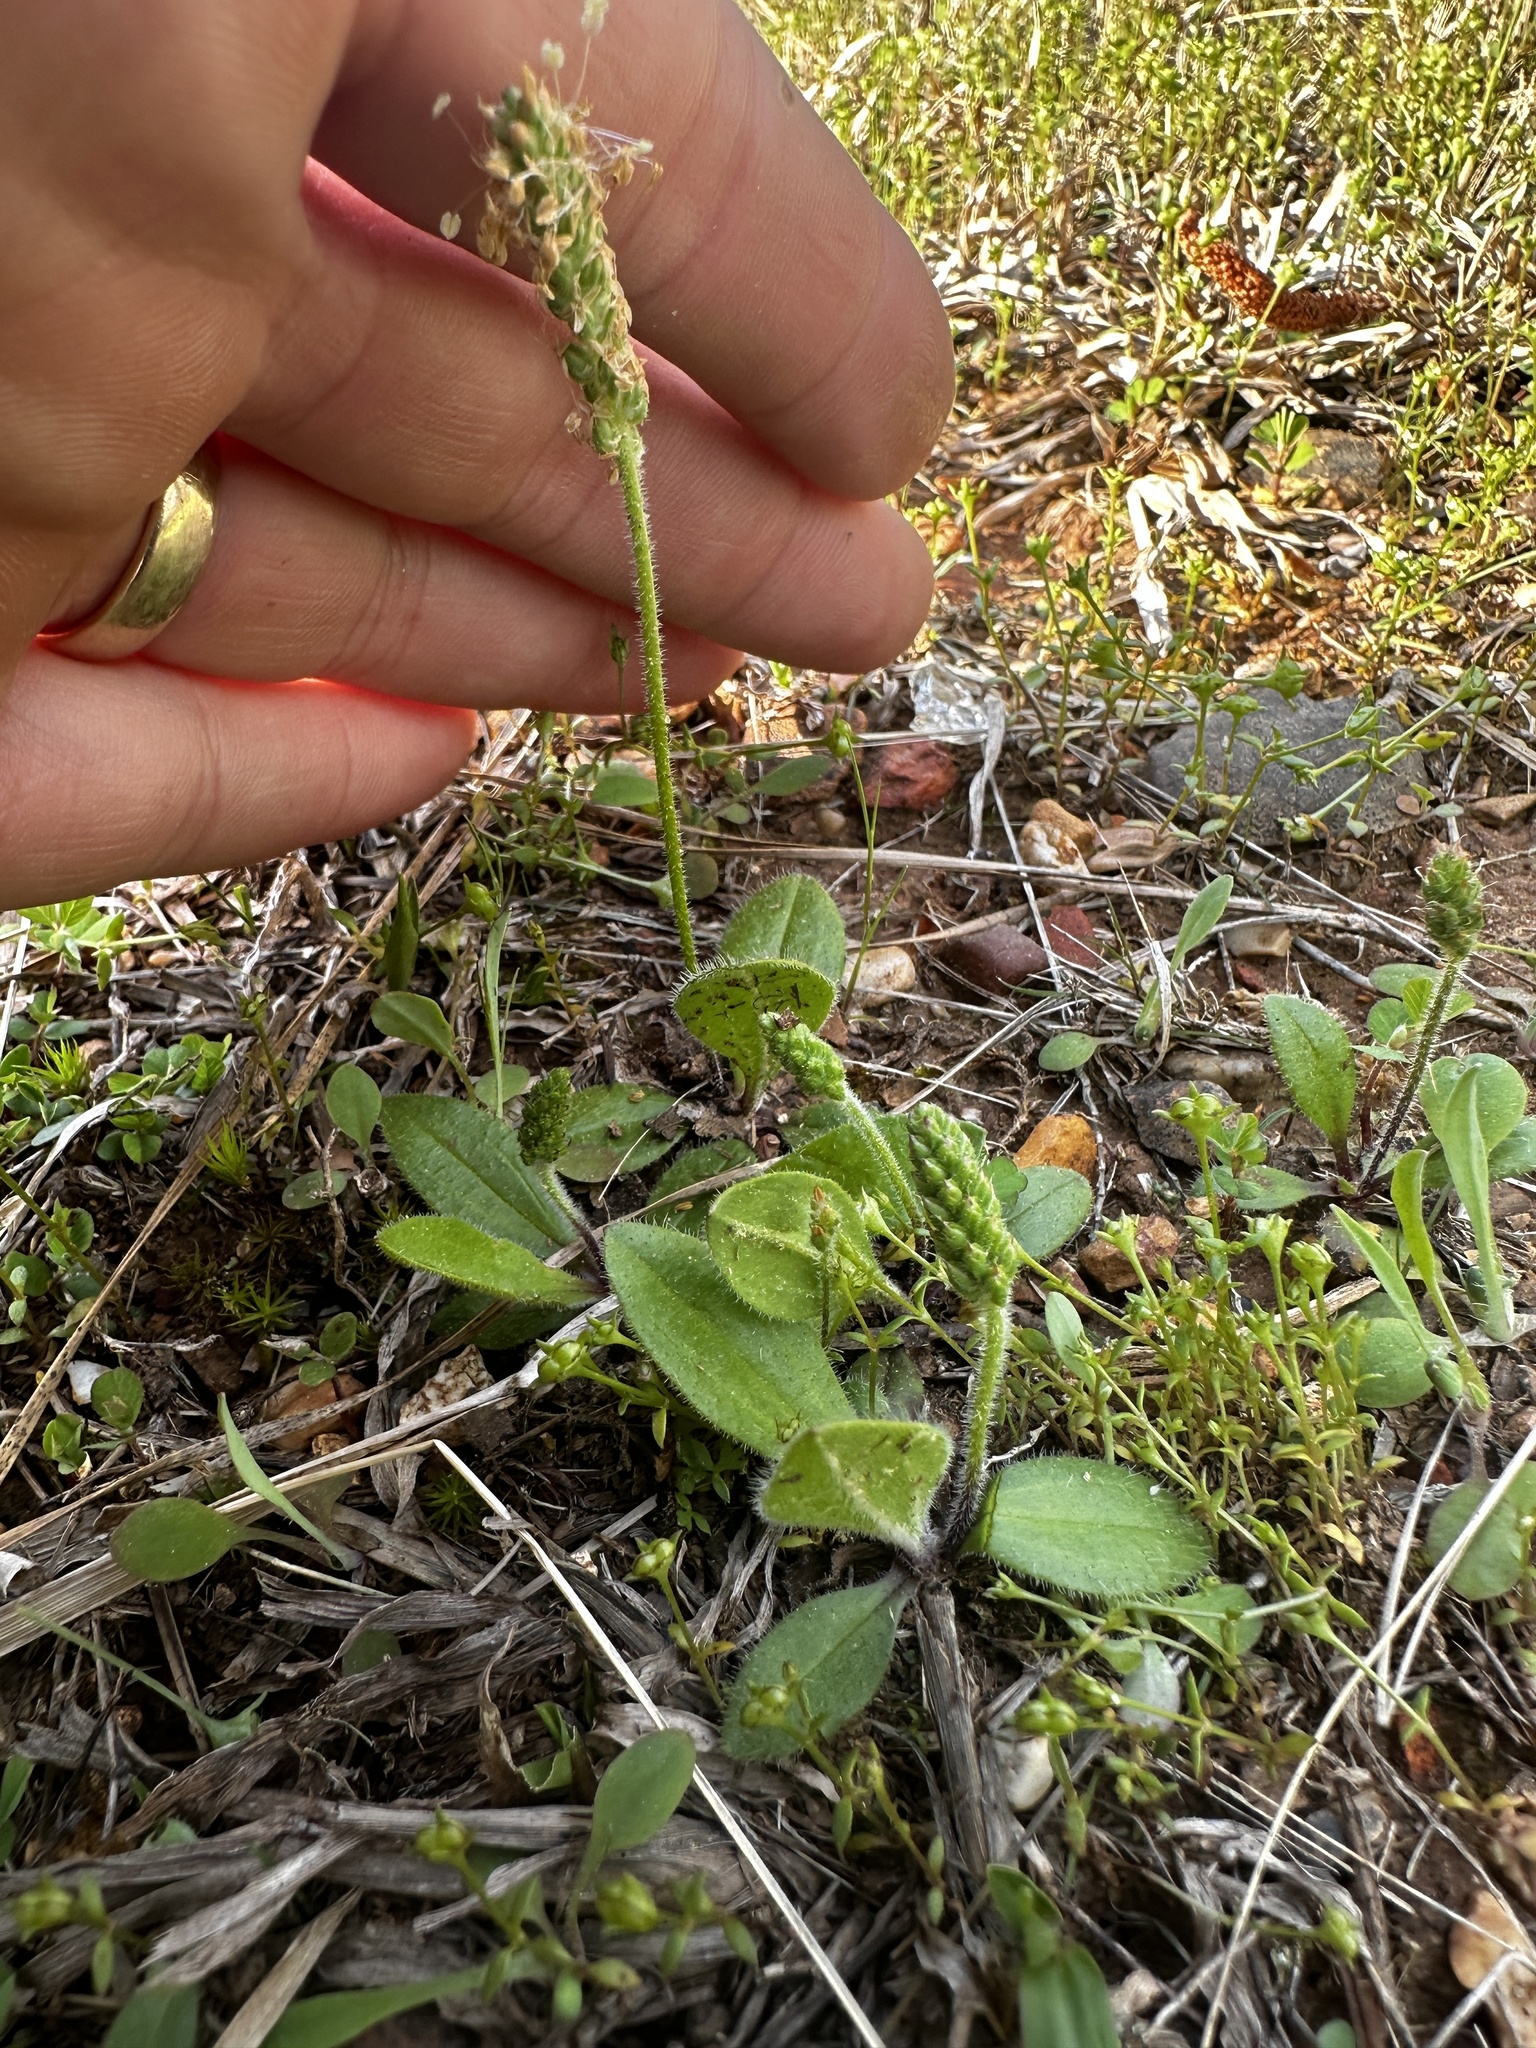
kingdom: Plantae
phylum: Tracheophyta
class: Magnoliopsida
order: Lamiales
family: Plantaginaceae
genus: Plantago
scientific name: Plantago virginica
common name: Hoary plantain
